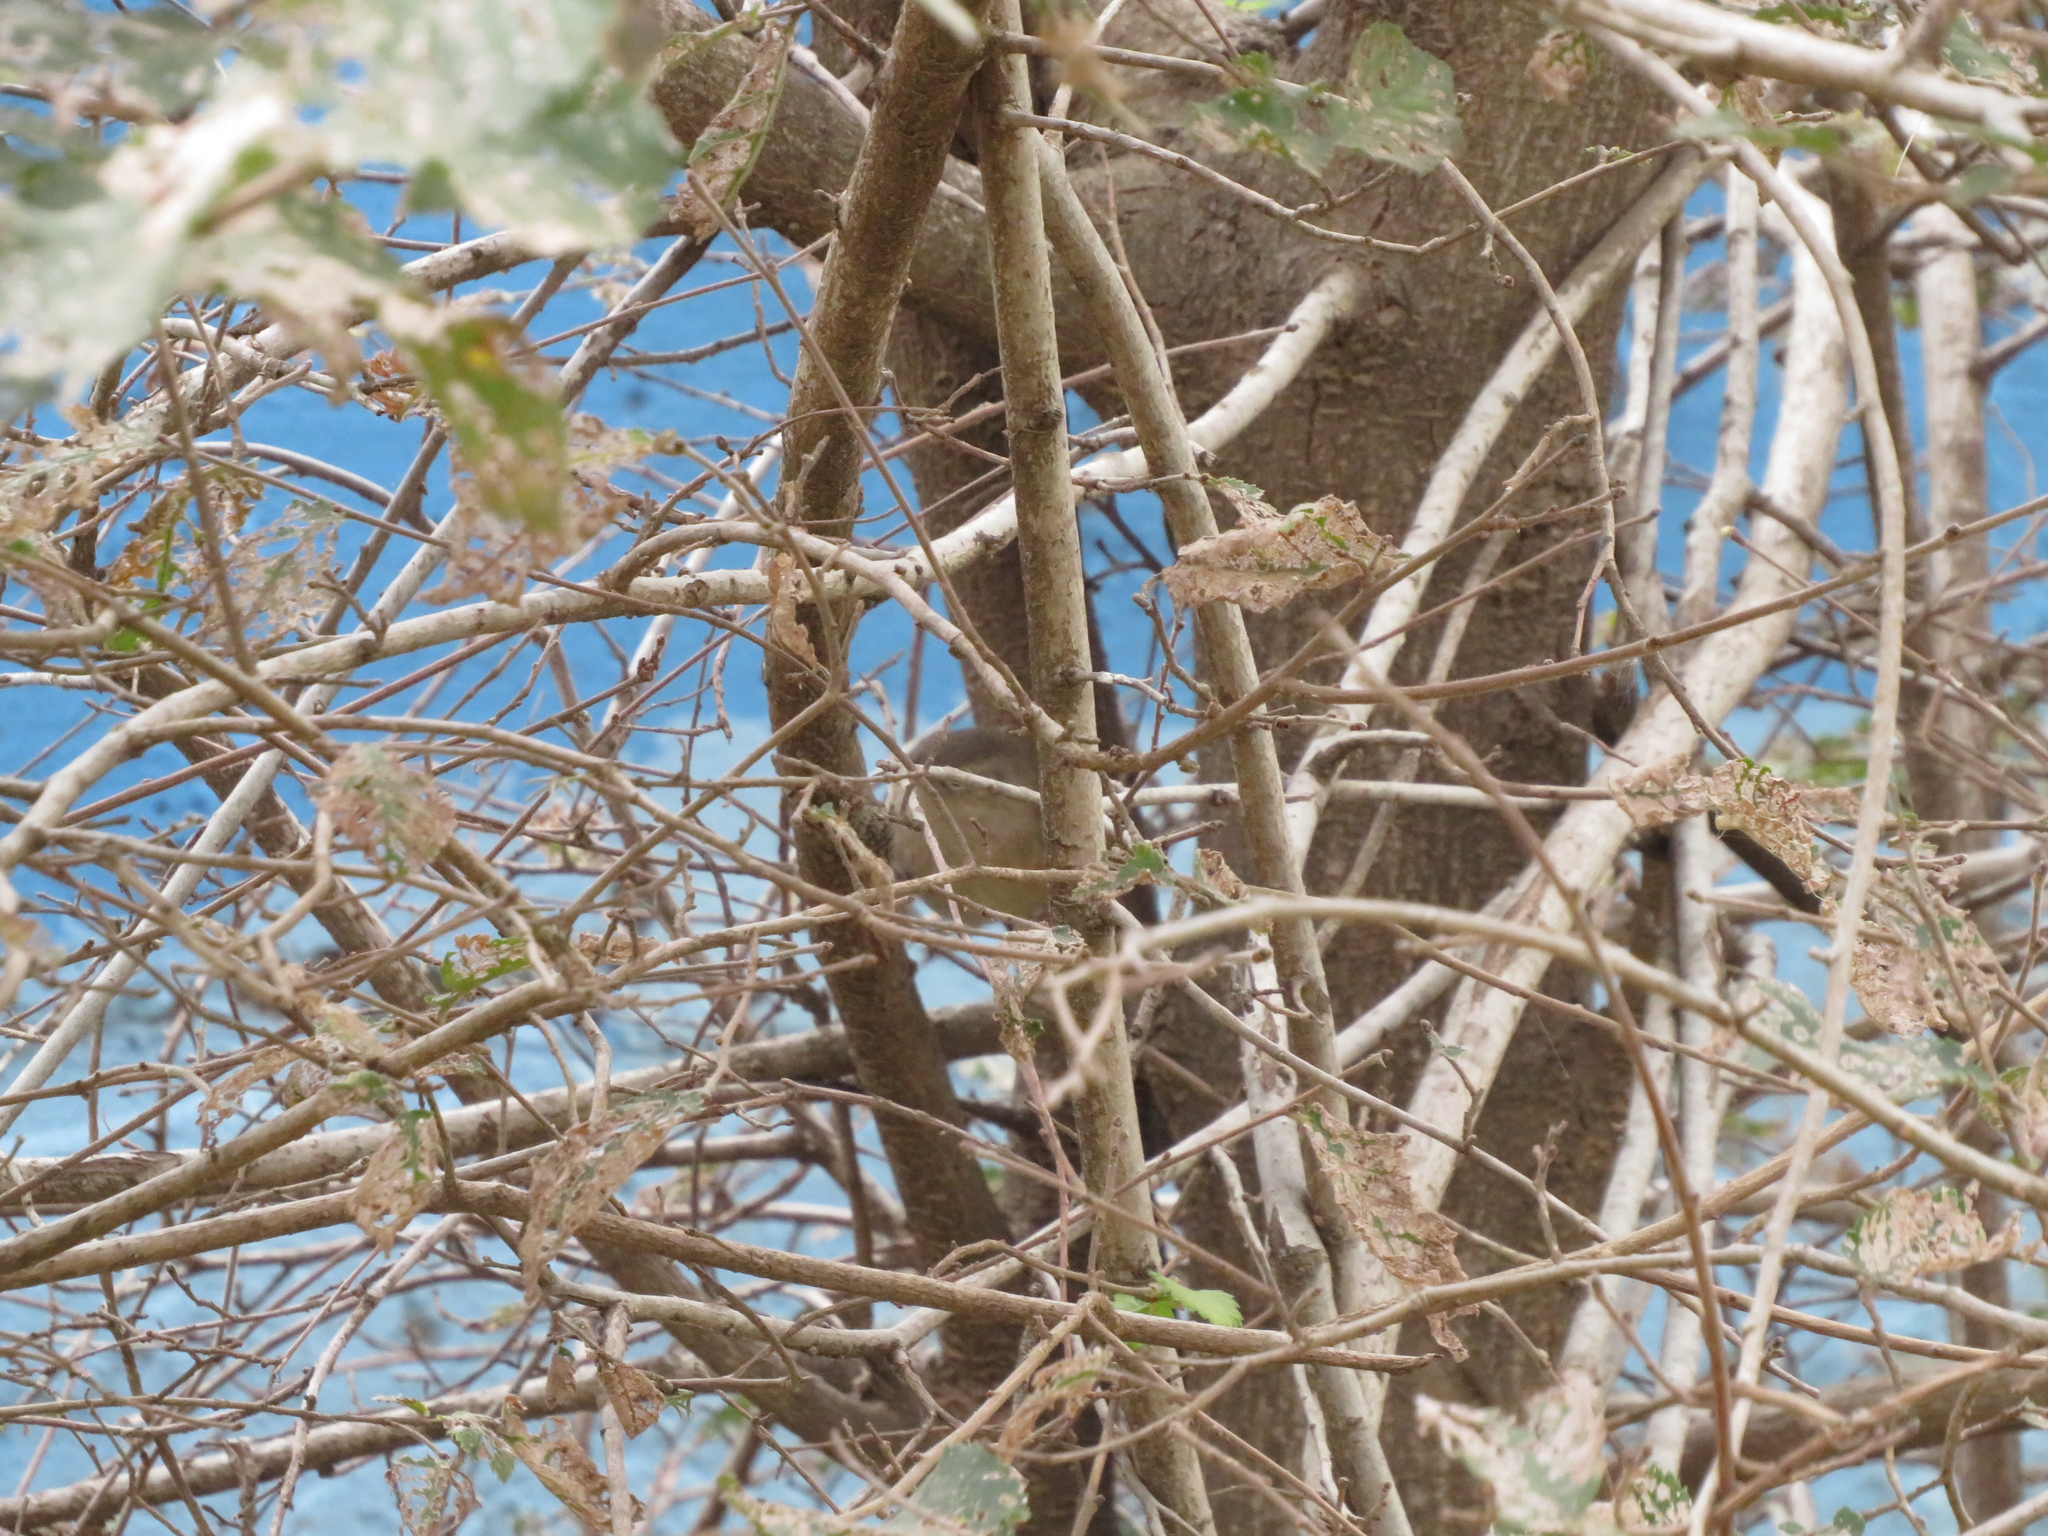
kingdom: Animalia
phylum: Chordata
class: Aves
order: Passeriformes
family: Troglodytidae
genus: Troglodytes
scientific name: Troglodytes aedon
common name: House wren
